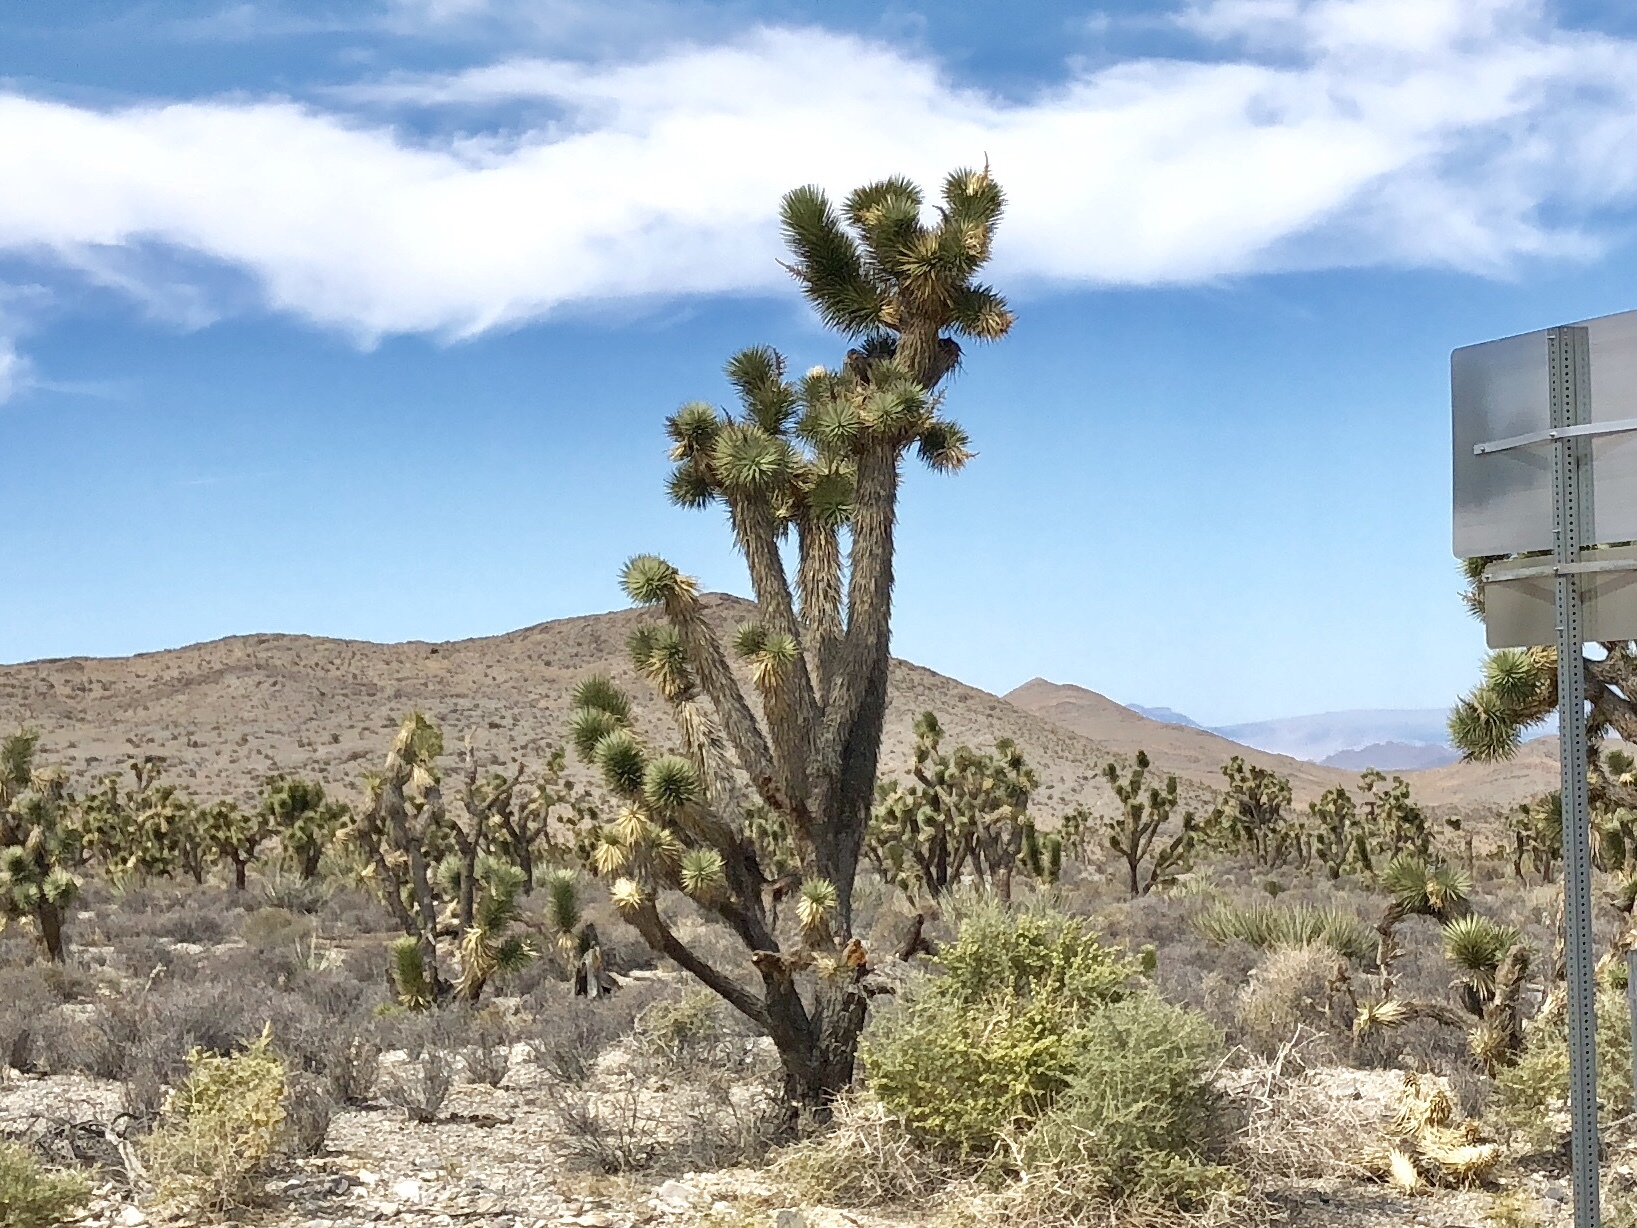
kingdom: Plantae
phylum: Tracheophyta
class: Liliopsida
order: Asparagales
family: Asparagaceae
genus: Yucca
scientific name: Yucca brevifolia
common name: Joshua tree
